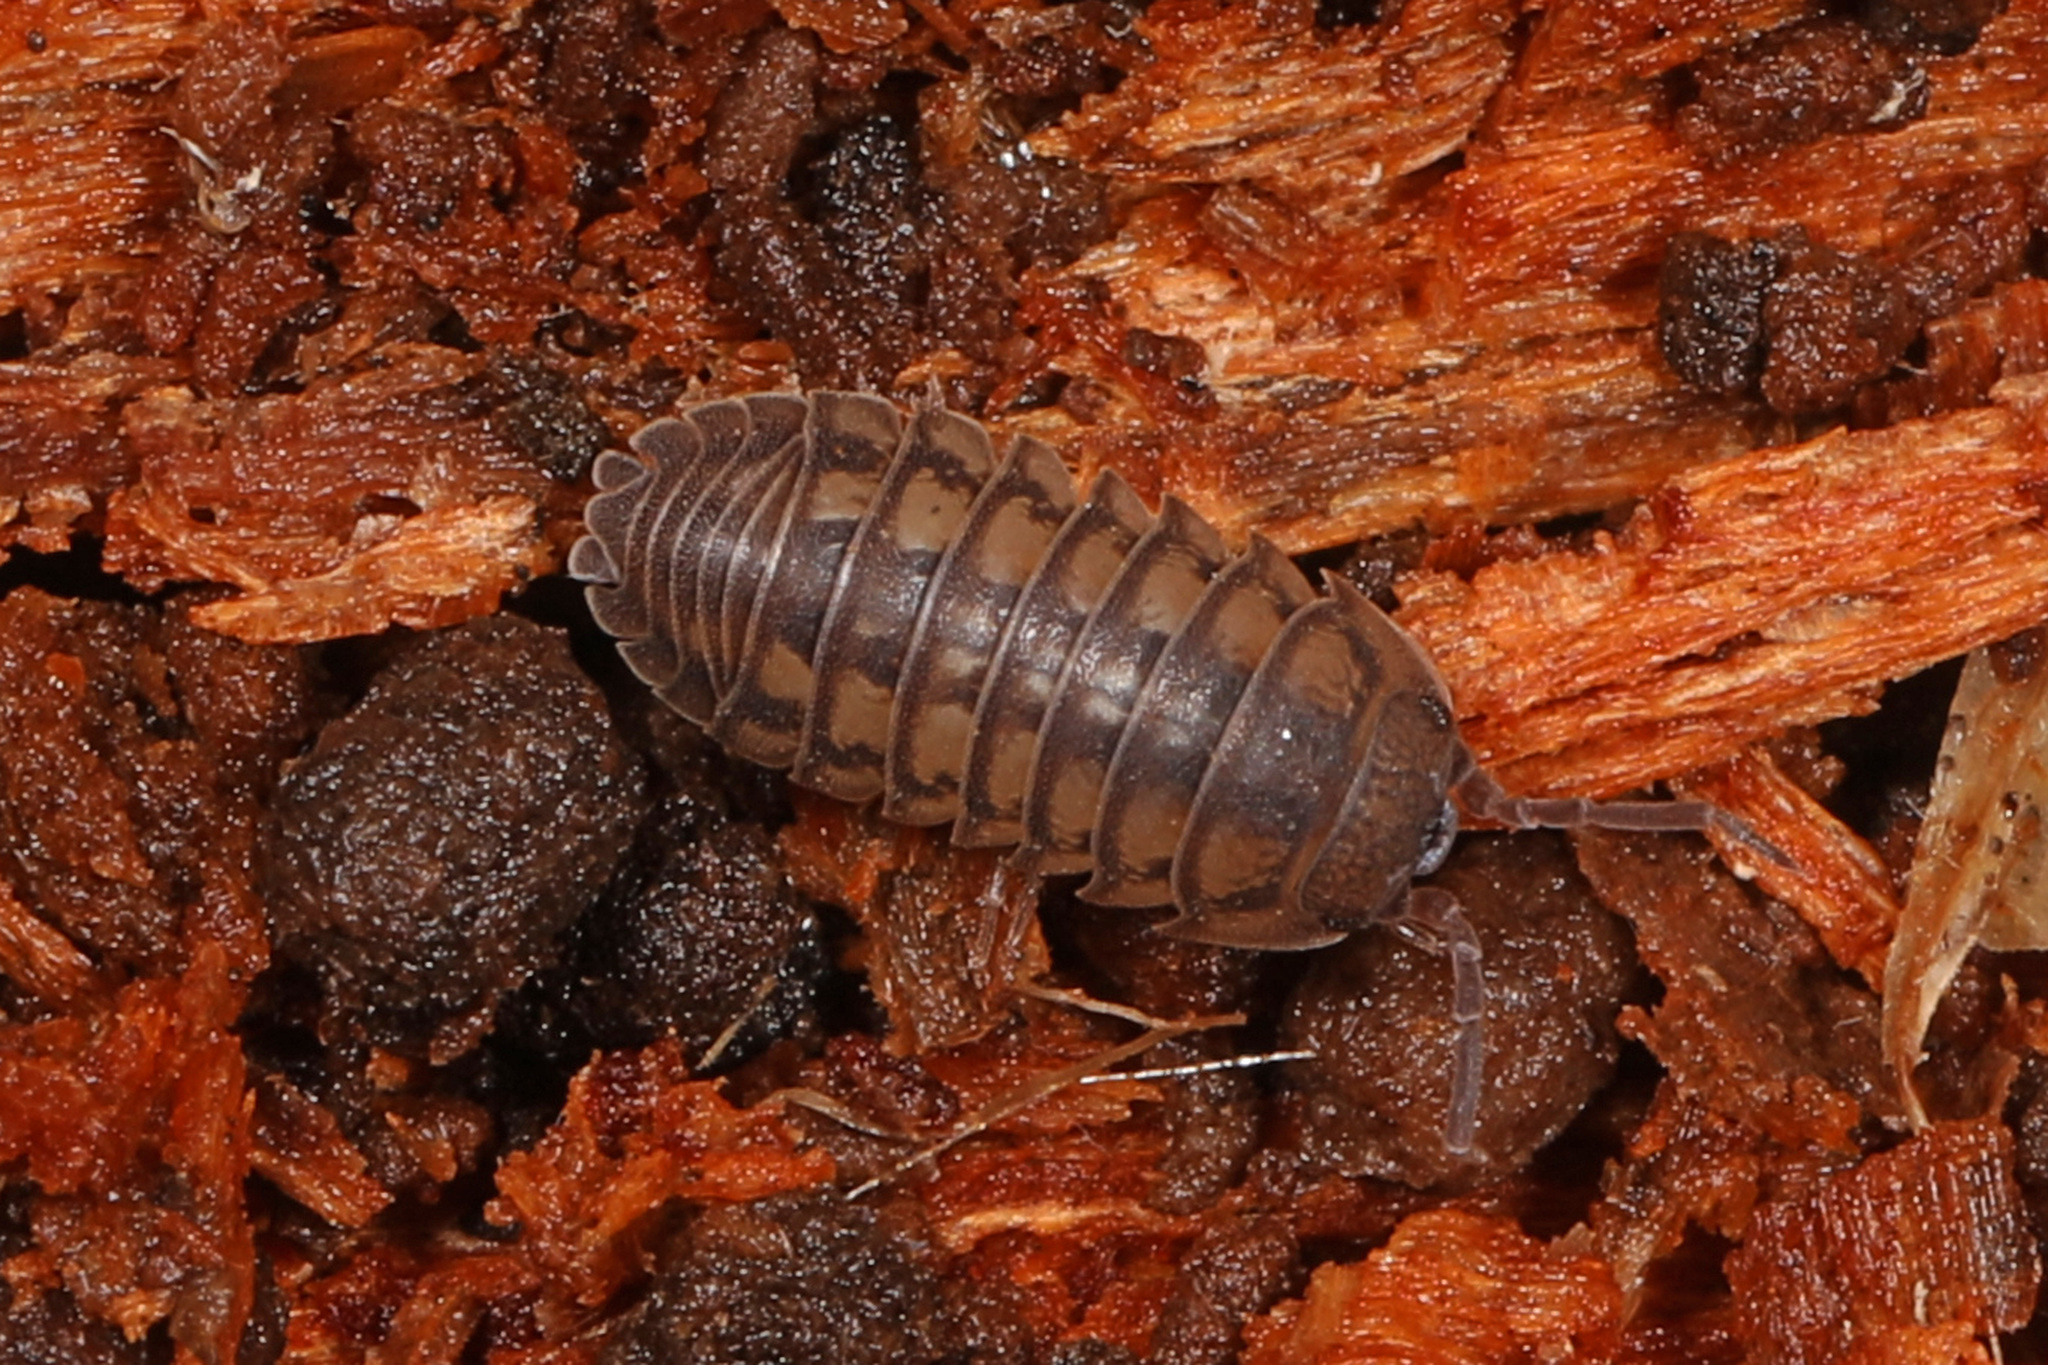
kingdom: Animalia
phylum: Arthropoda
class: Malacostraca
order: Isopoda
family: Armadillidiidae
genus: Armadillidium
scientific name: Armadillidium nasatum
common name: Isopod
